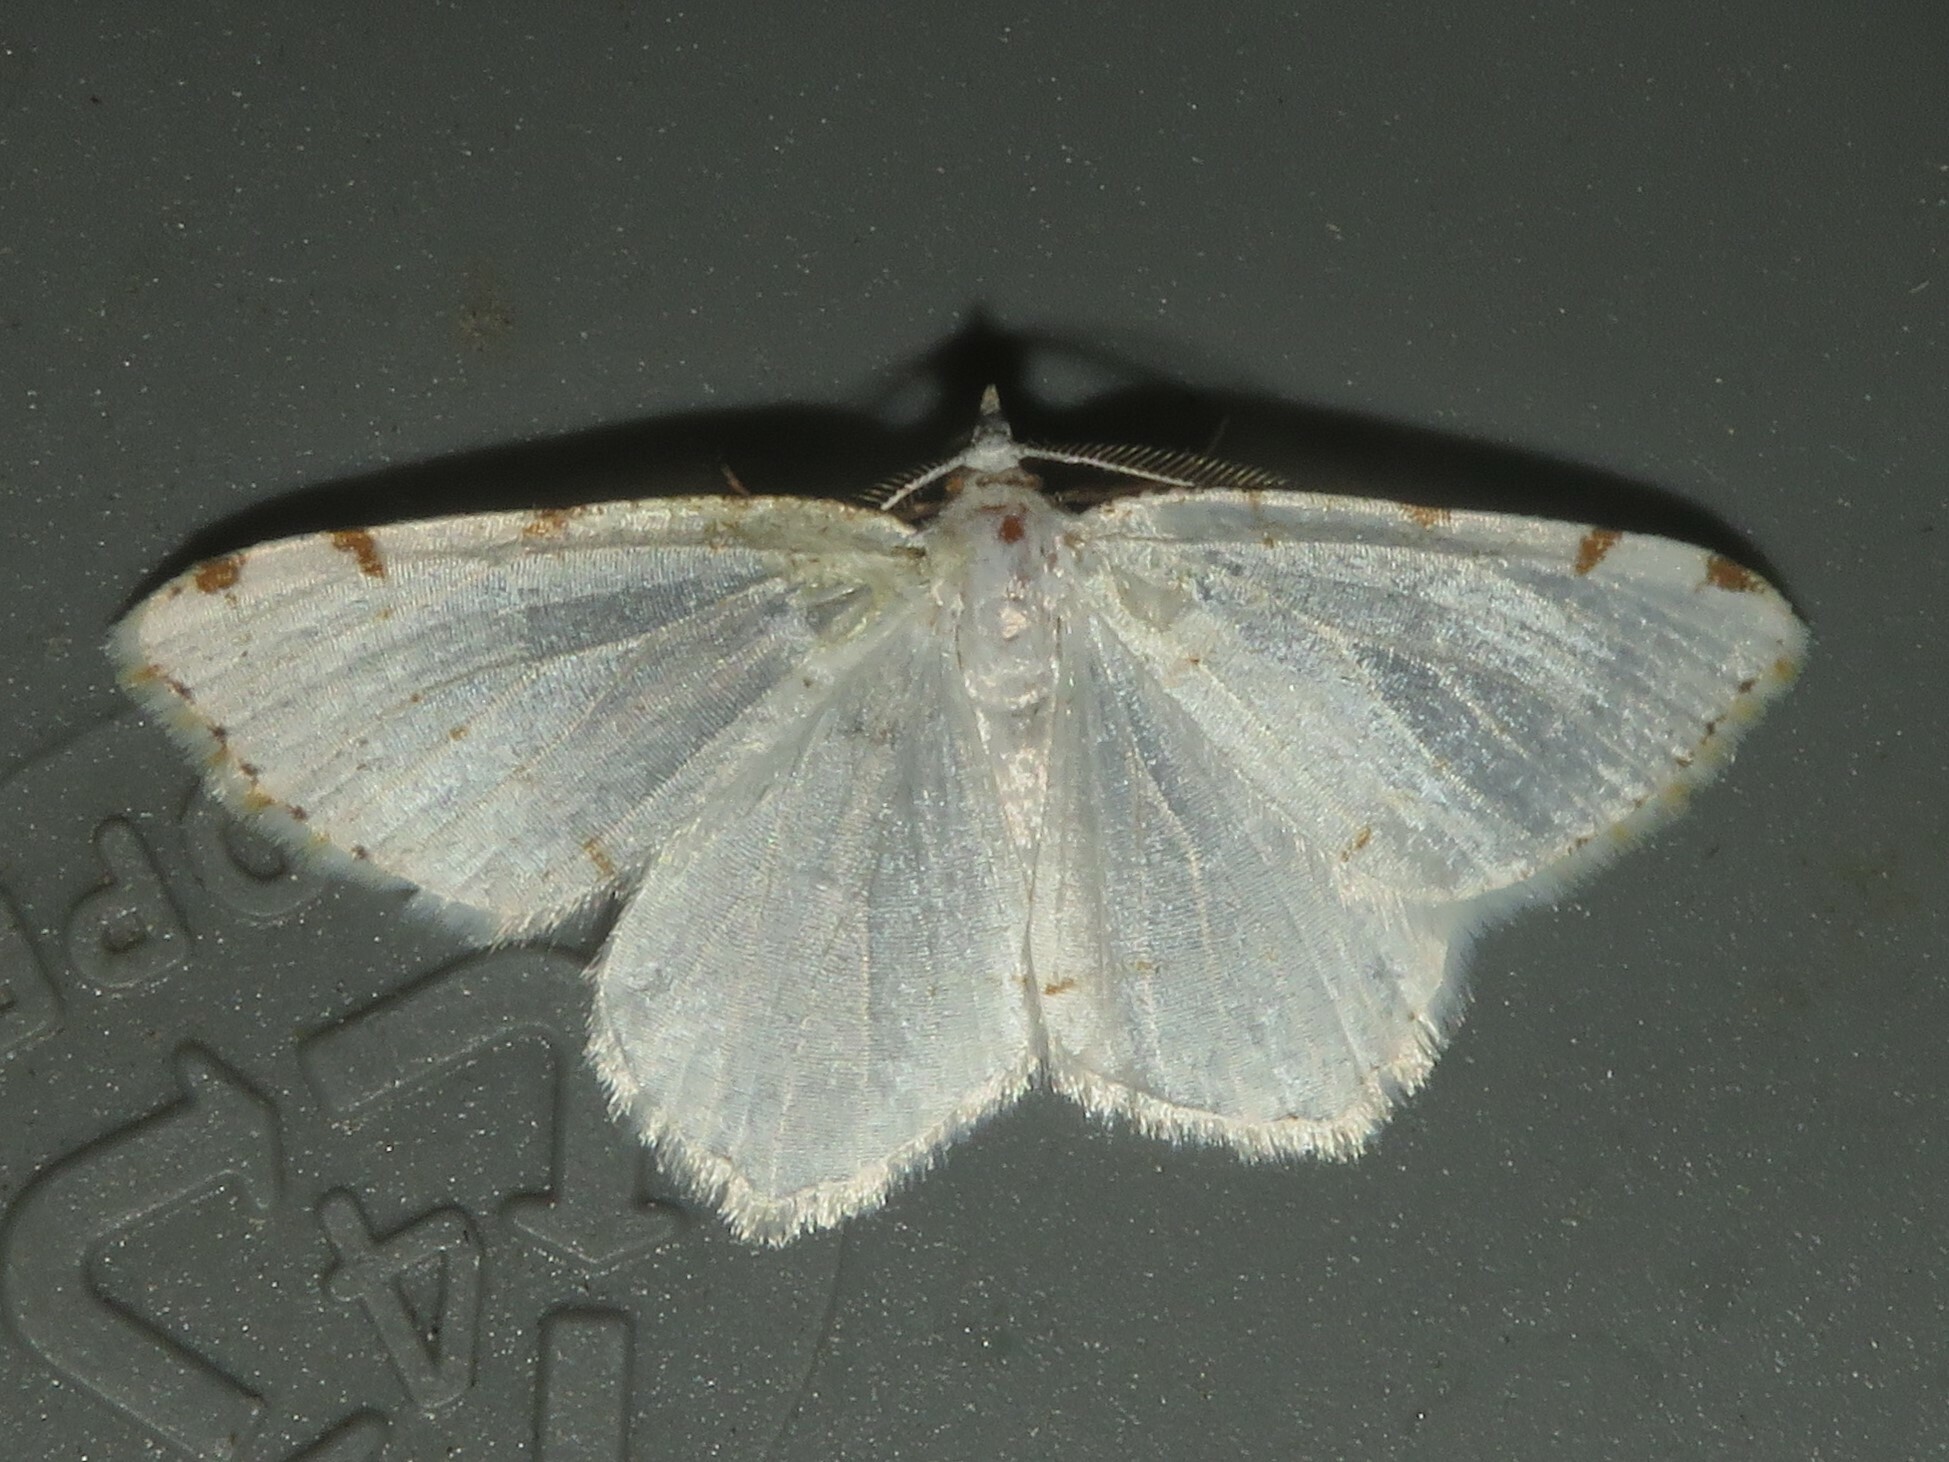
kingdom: Animalia
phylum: Arthropoda
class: Insecta
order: Lepidoptera
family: Geometridae
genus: Macaria
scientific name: Macaria pustularia
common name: Lesser maple spanworm moth
